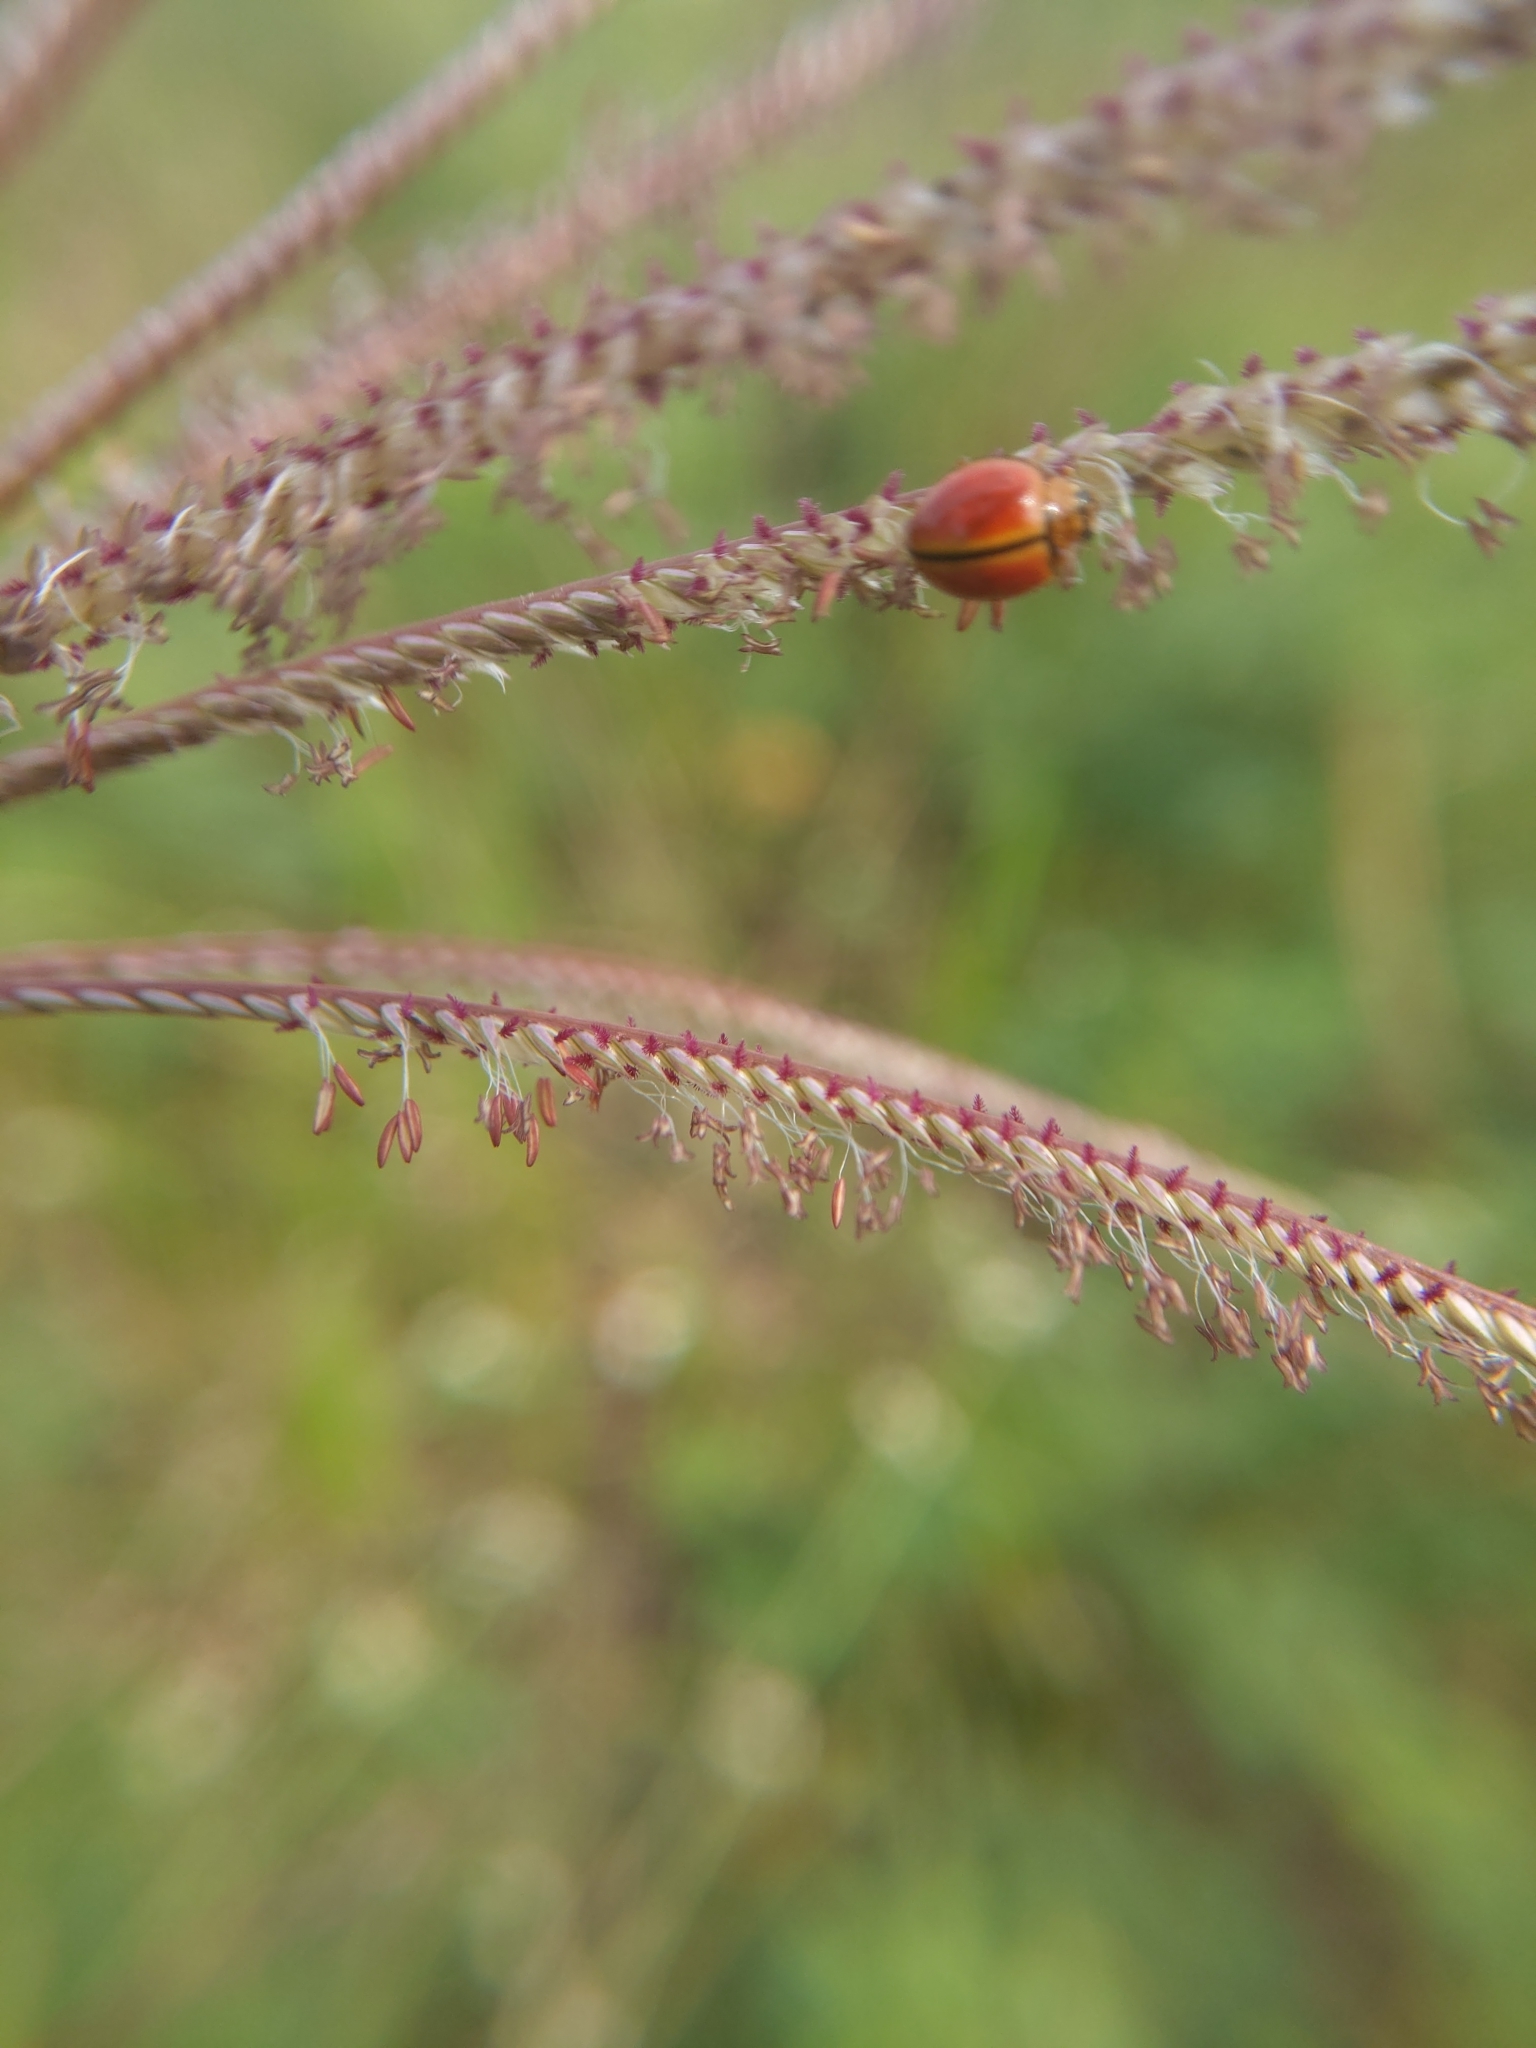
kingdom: Animalia
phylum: Arthropoda
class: Insecta
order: Coleoptera
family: Coccinellidae
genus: Micraspis
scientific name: Micraspis discolor
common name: Lady beetle
